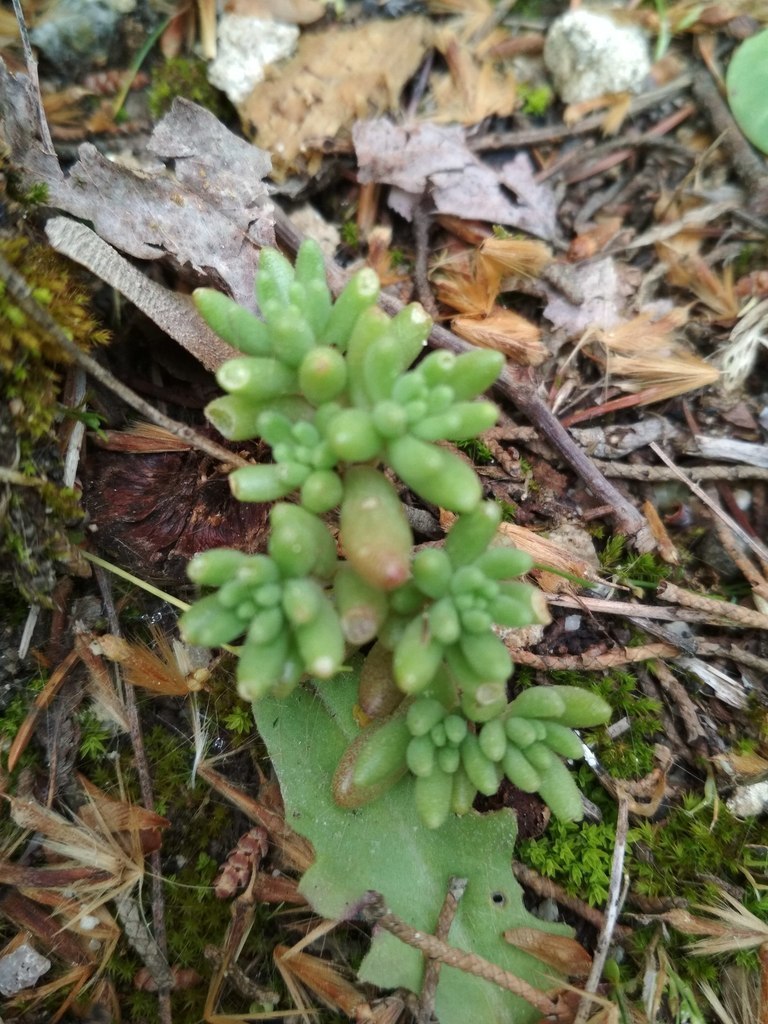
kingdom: Plantae
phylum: Tracheophyta
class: Magnoliopsida
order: Saxifragales
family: Crassulaceae
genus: Sedum
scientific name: Sedum album
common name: White stonecrop
